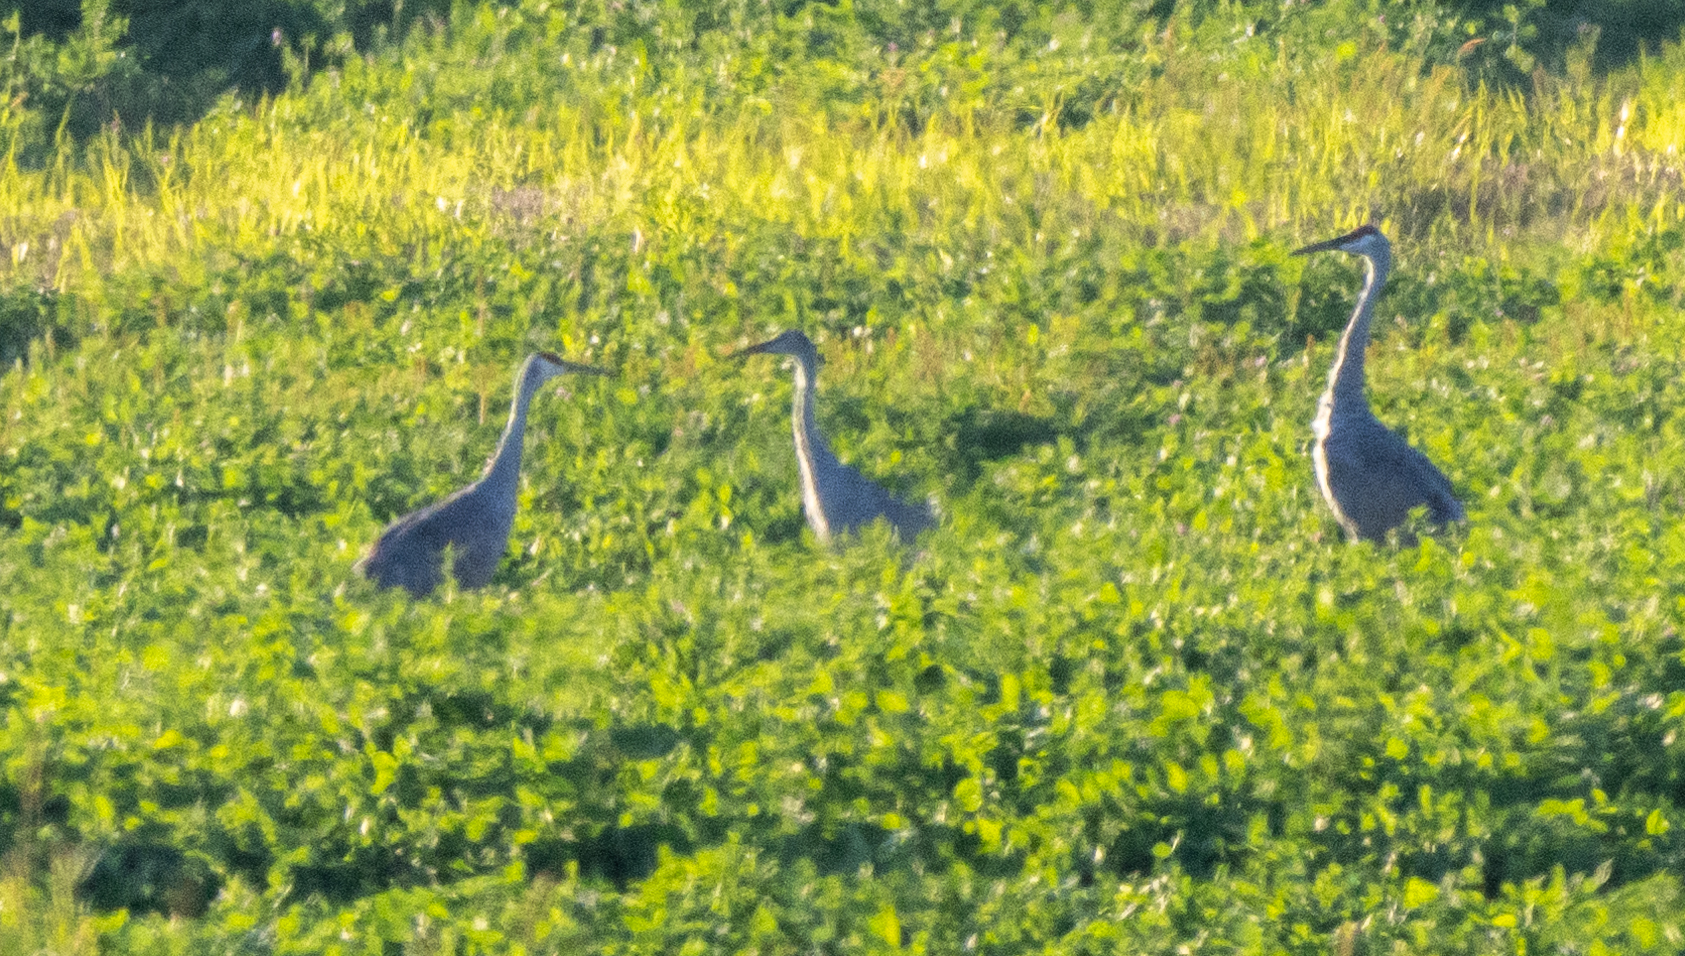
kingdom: Animalia
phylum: Chordata
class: Aves
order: Gruiformes
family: Gruidae
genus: Grus
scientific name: Grus canadensis
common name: Sandhill crane
